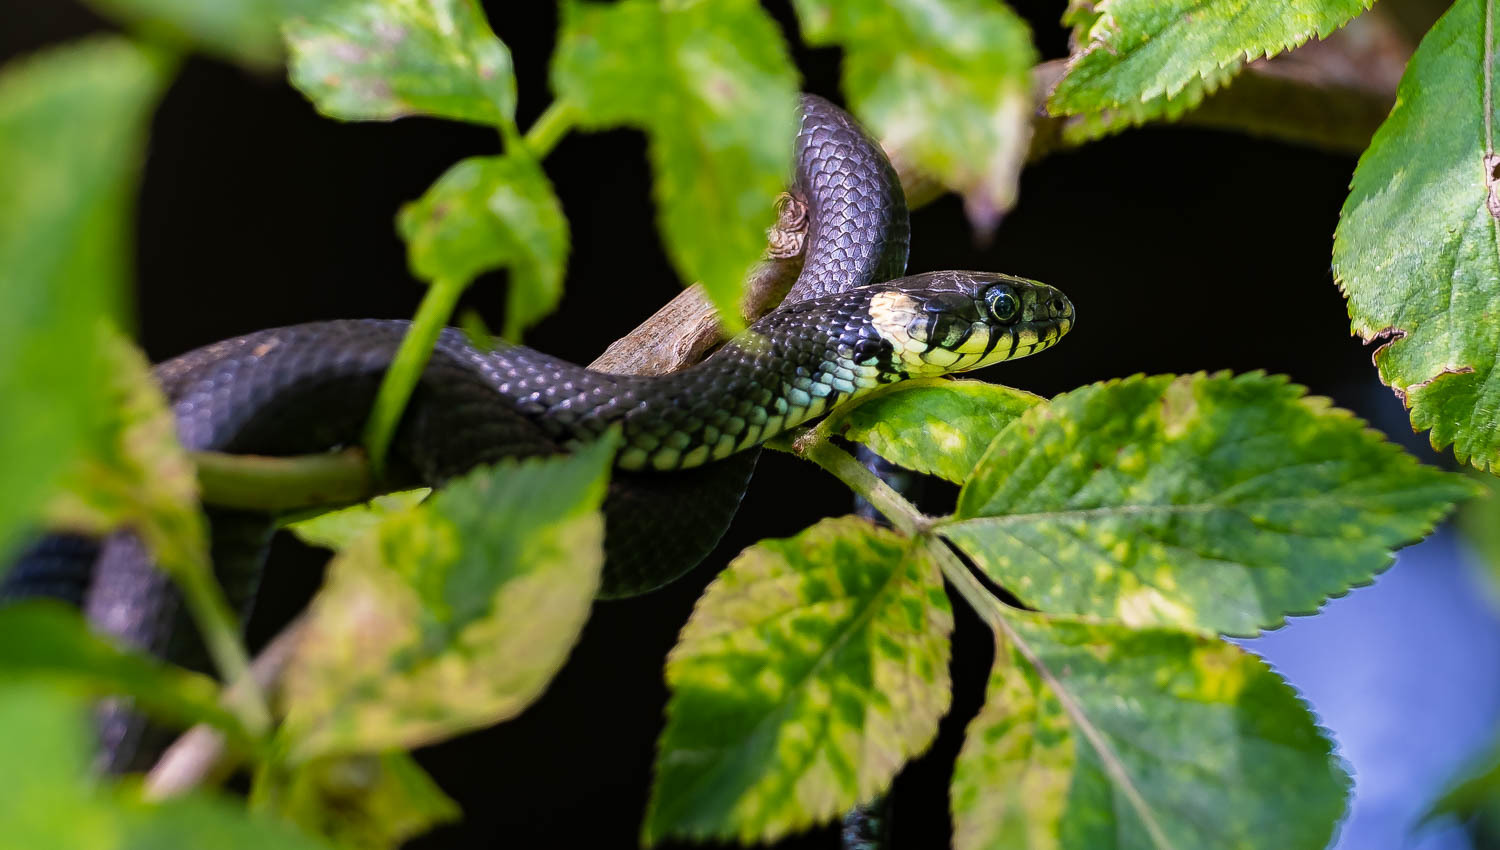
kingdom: Animalia
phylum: Chordata
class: Squamata
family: Colubridae
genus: Natrix
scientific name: Natrix natrix
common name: Grass snake
